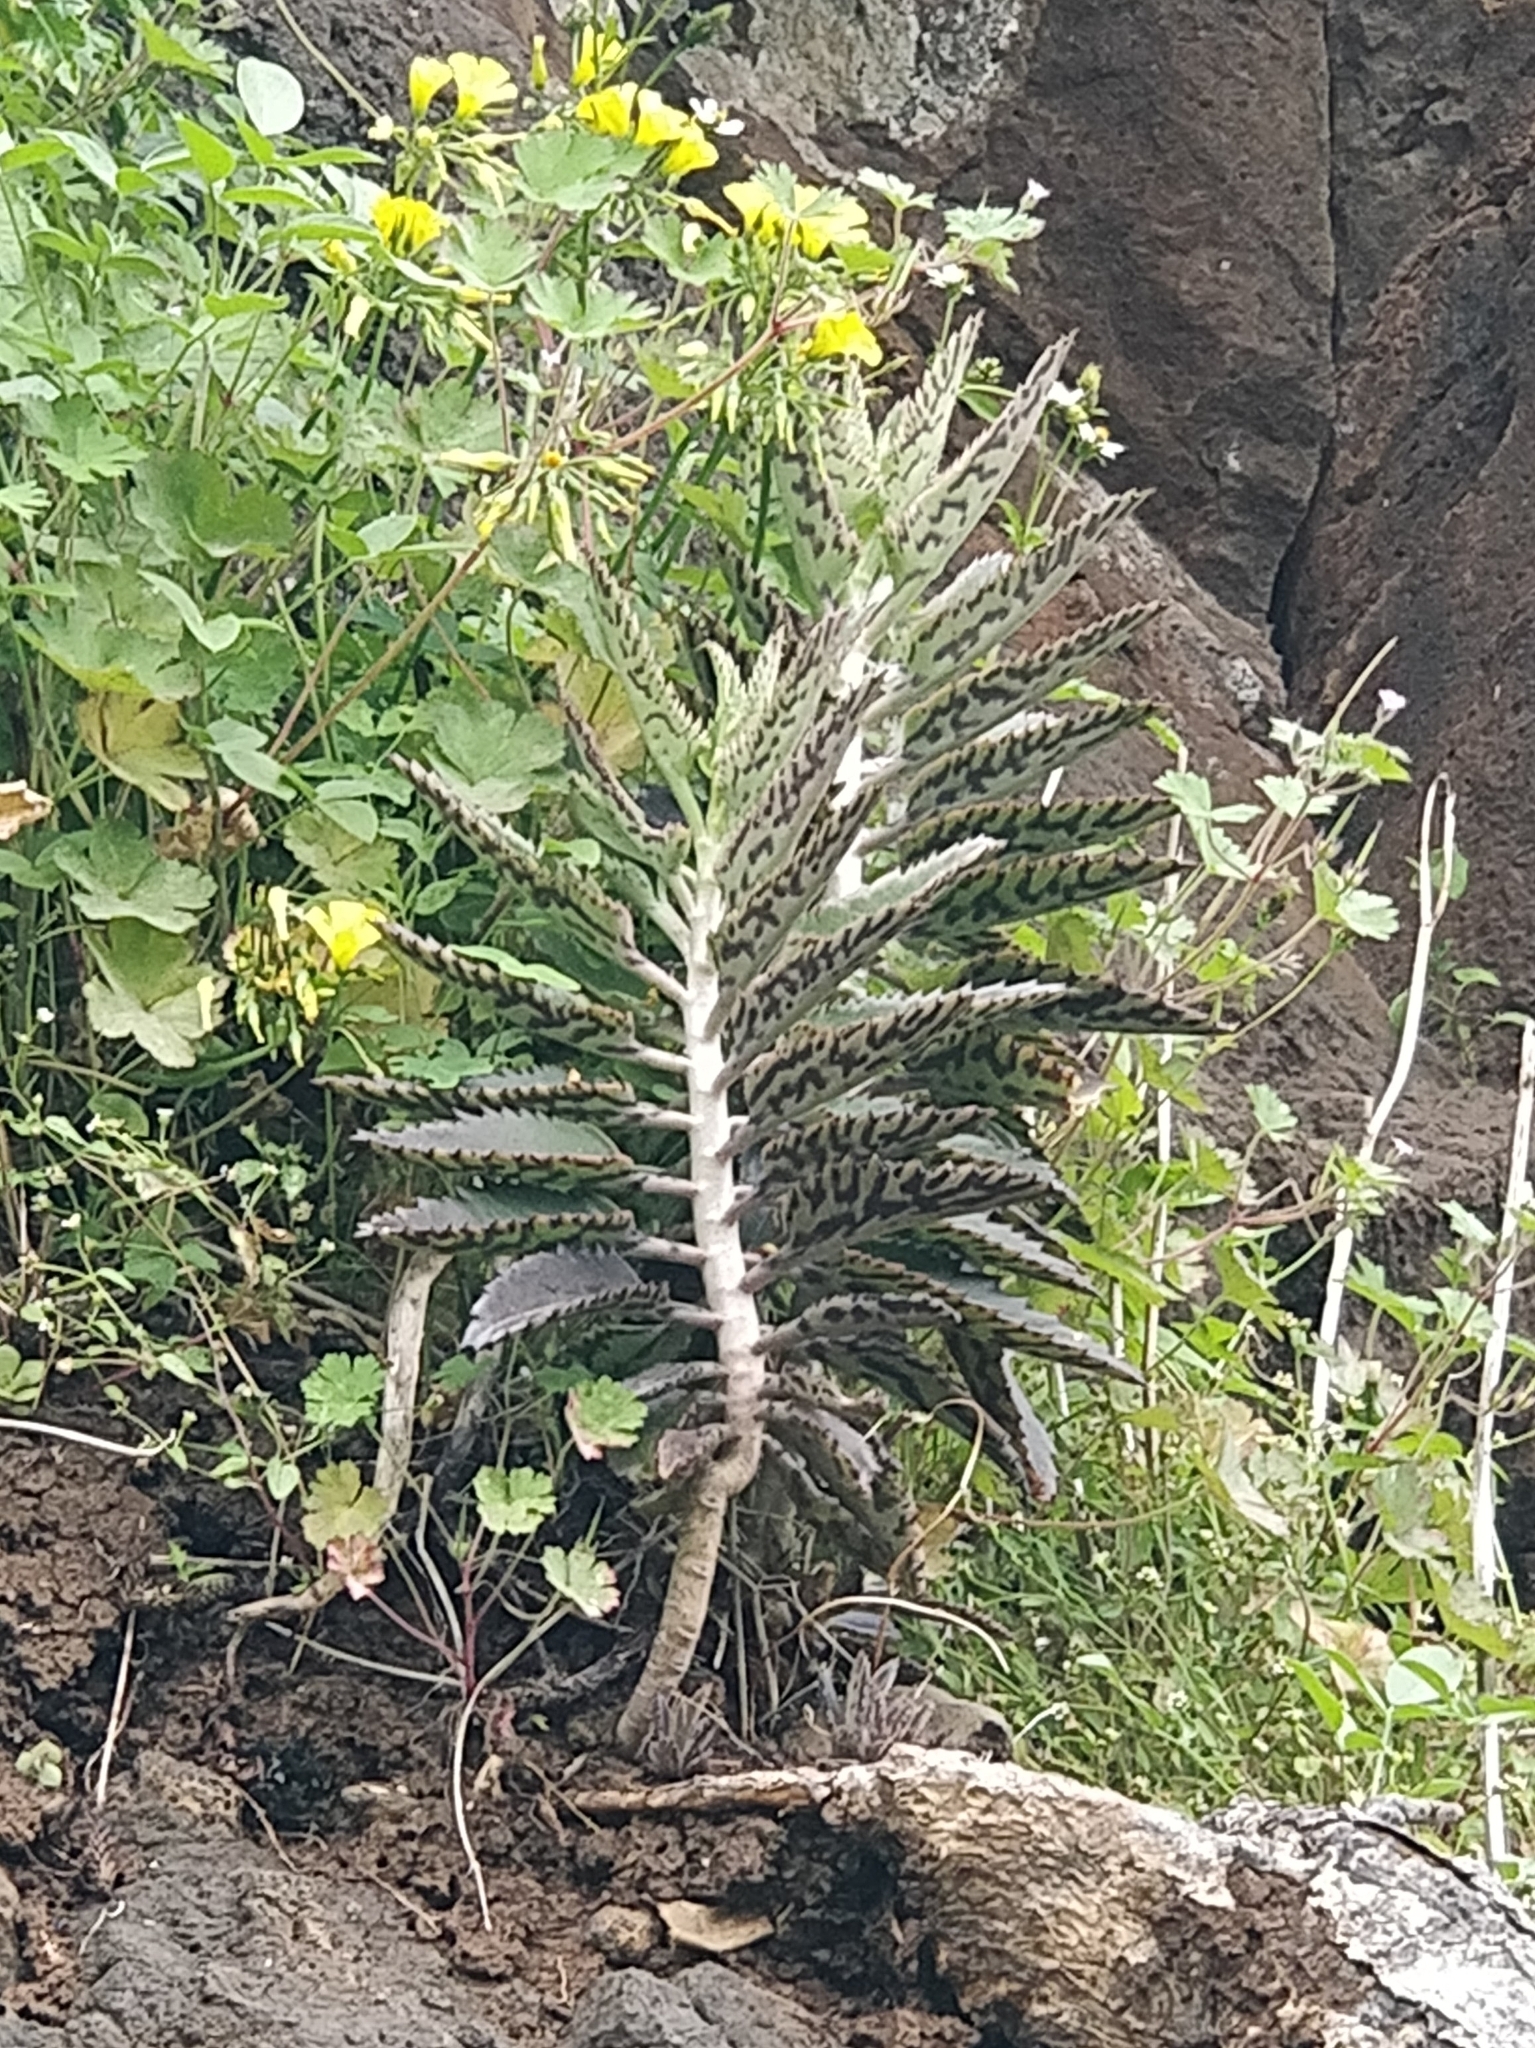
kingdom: Plantae
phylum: Tracheophyta
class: Magnoliopsida
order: Saxifragales
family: Crassulaceae
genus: Kalanchoe
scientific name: Kalanchoe houghtonii
